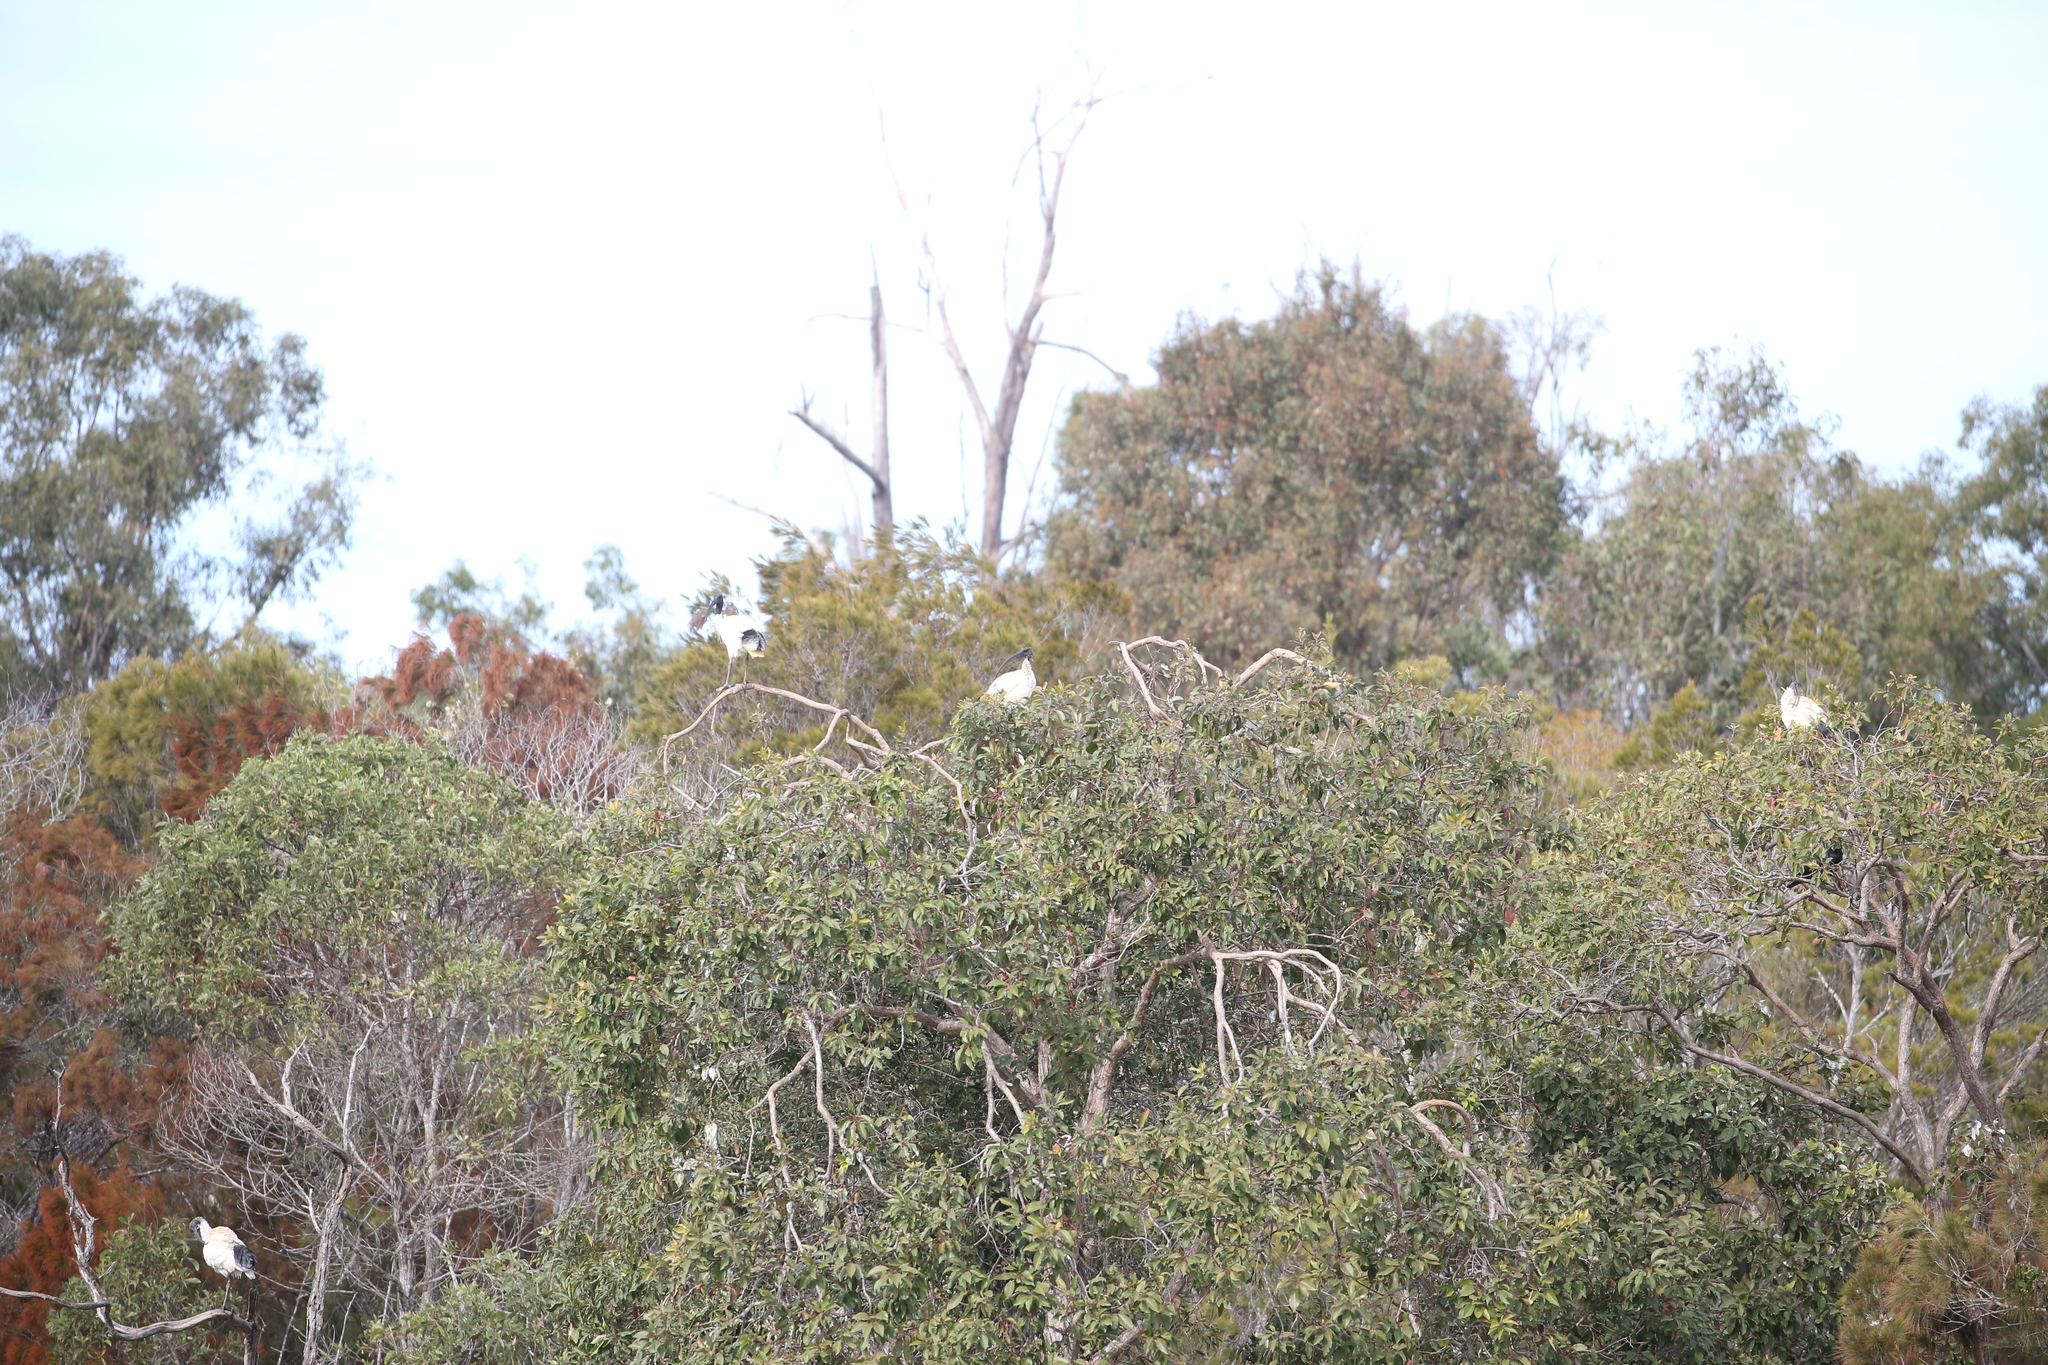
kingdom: Animalia
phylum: Chordata
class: Aves
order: Pelecaniformes
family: Threskiornithidae
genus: Threskiornis
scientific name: Threskiornis molucca
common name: Australian white ibis
